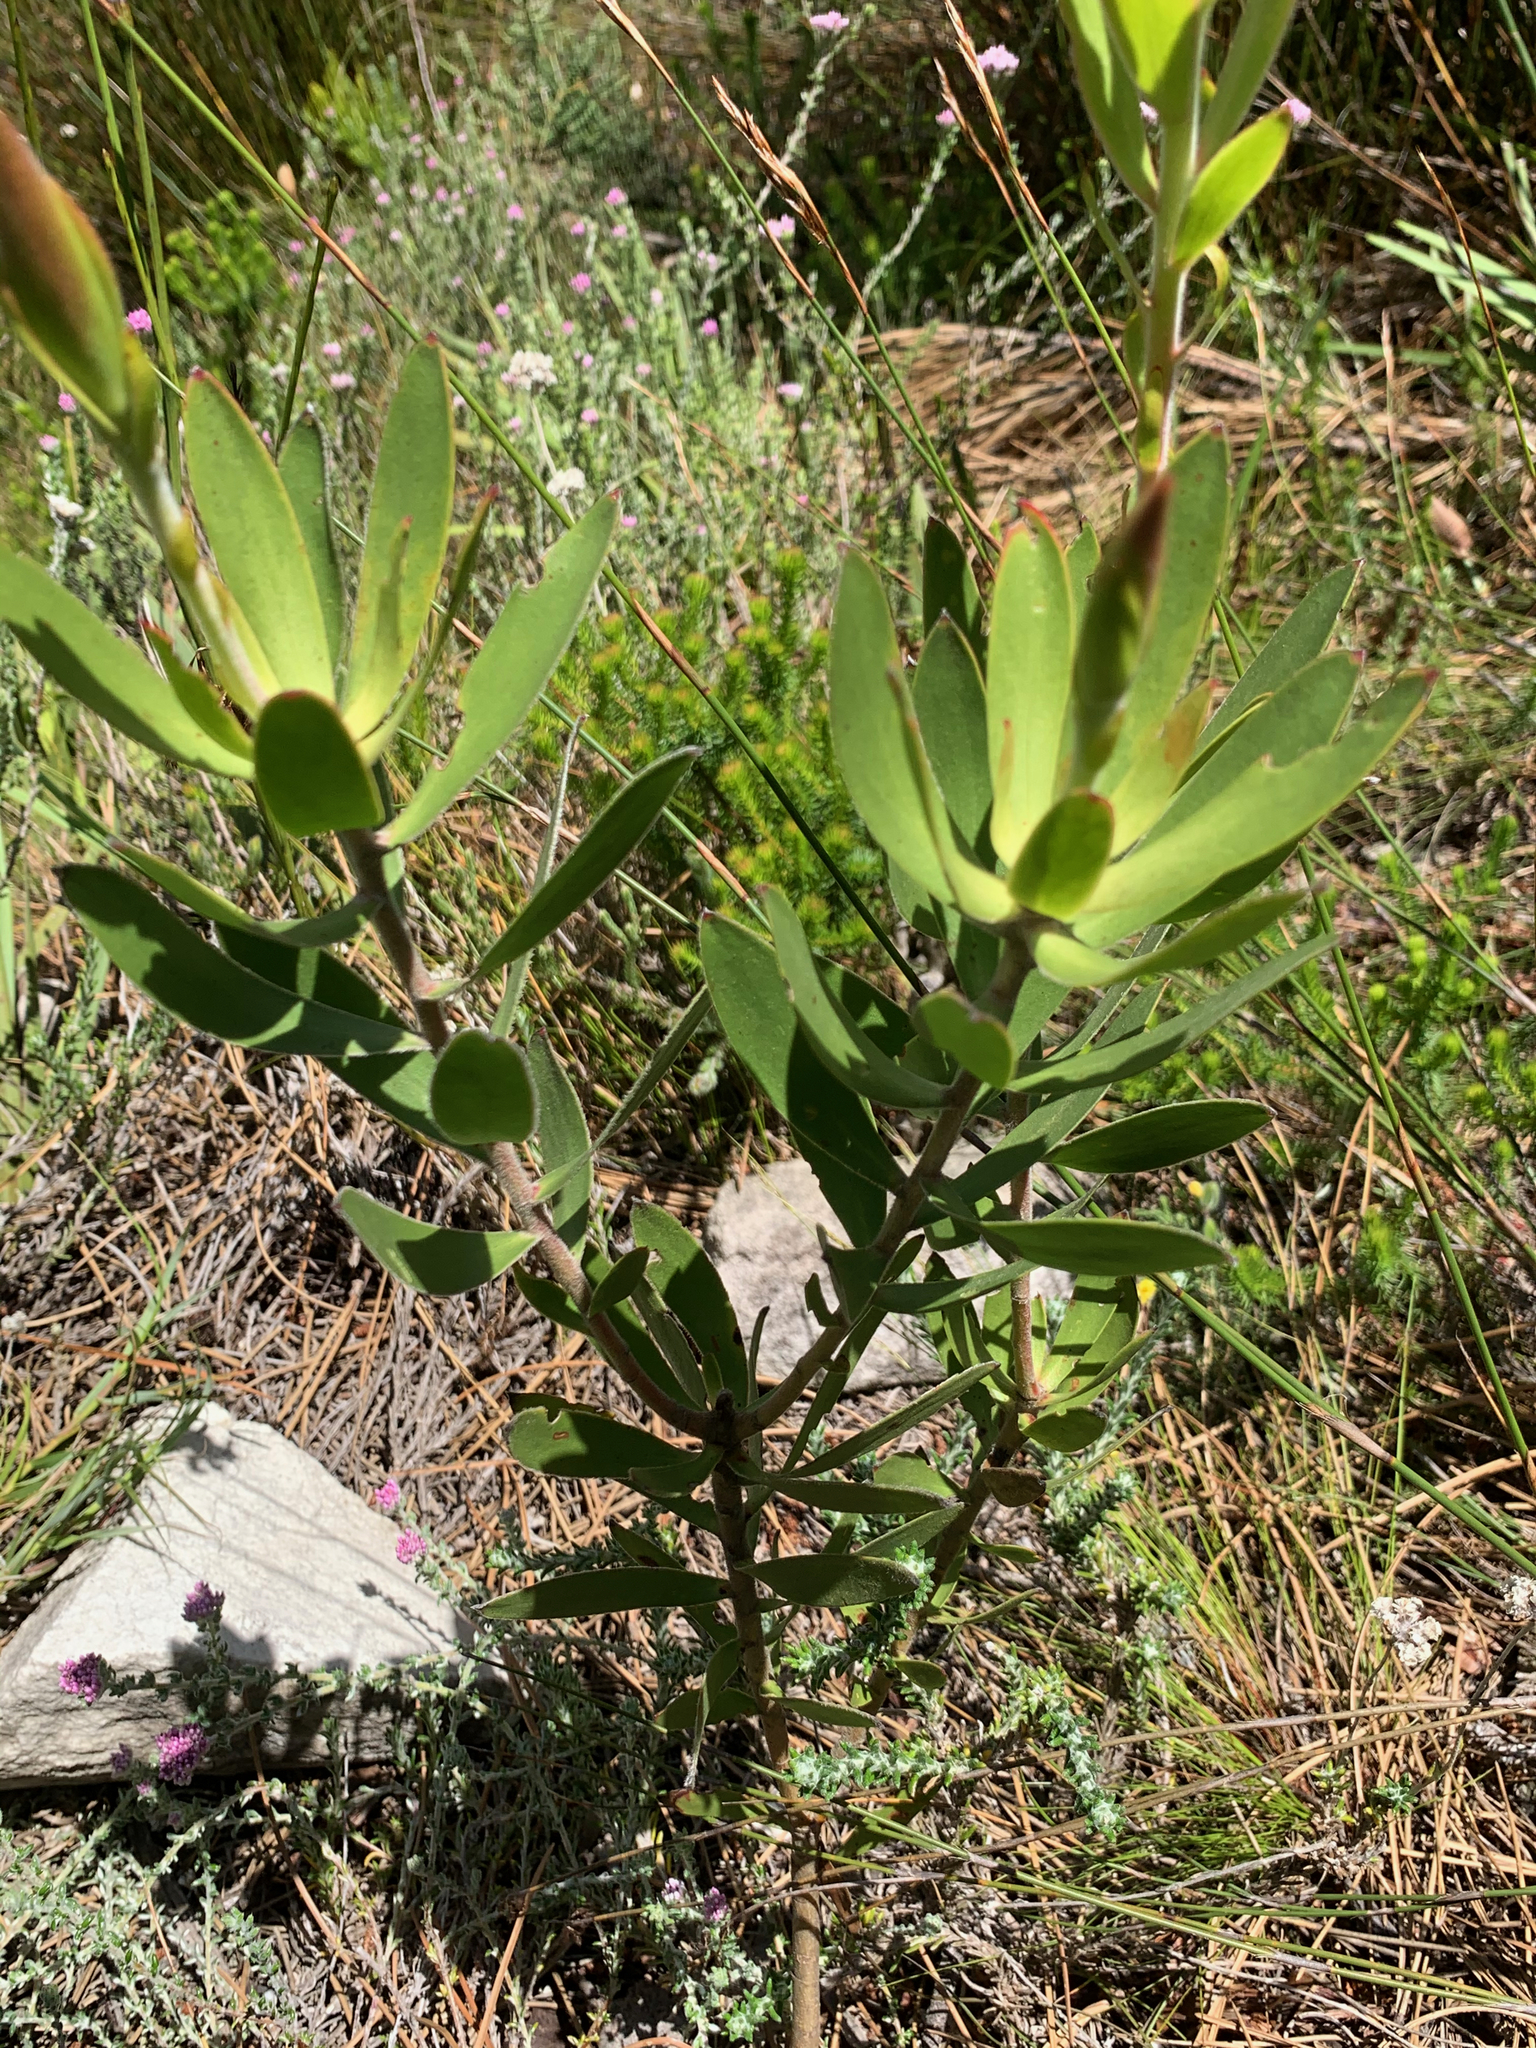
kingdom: Plantae
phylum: Tracheophyta
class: Magnoliopsida
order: Proteales
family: Proteaceae
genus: Leucadendron
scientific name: Leucadendron gandogeri
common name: Broad-leaf conebush
